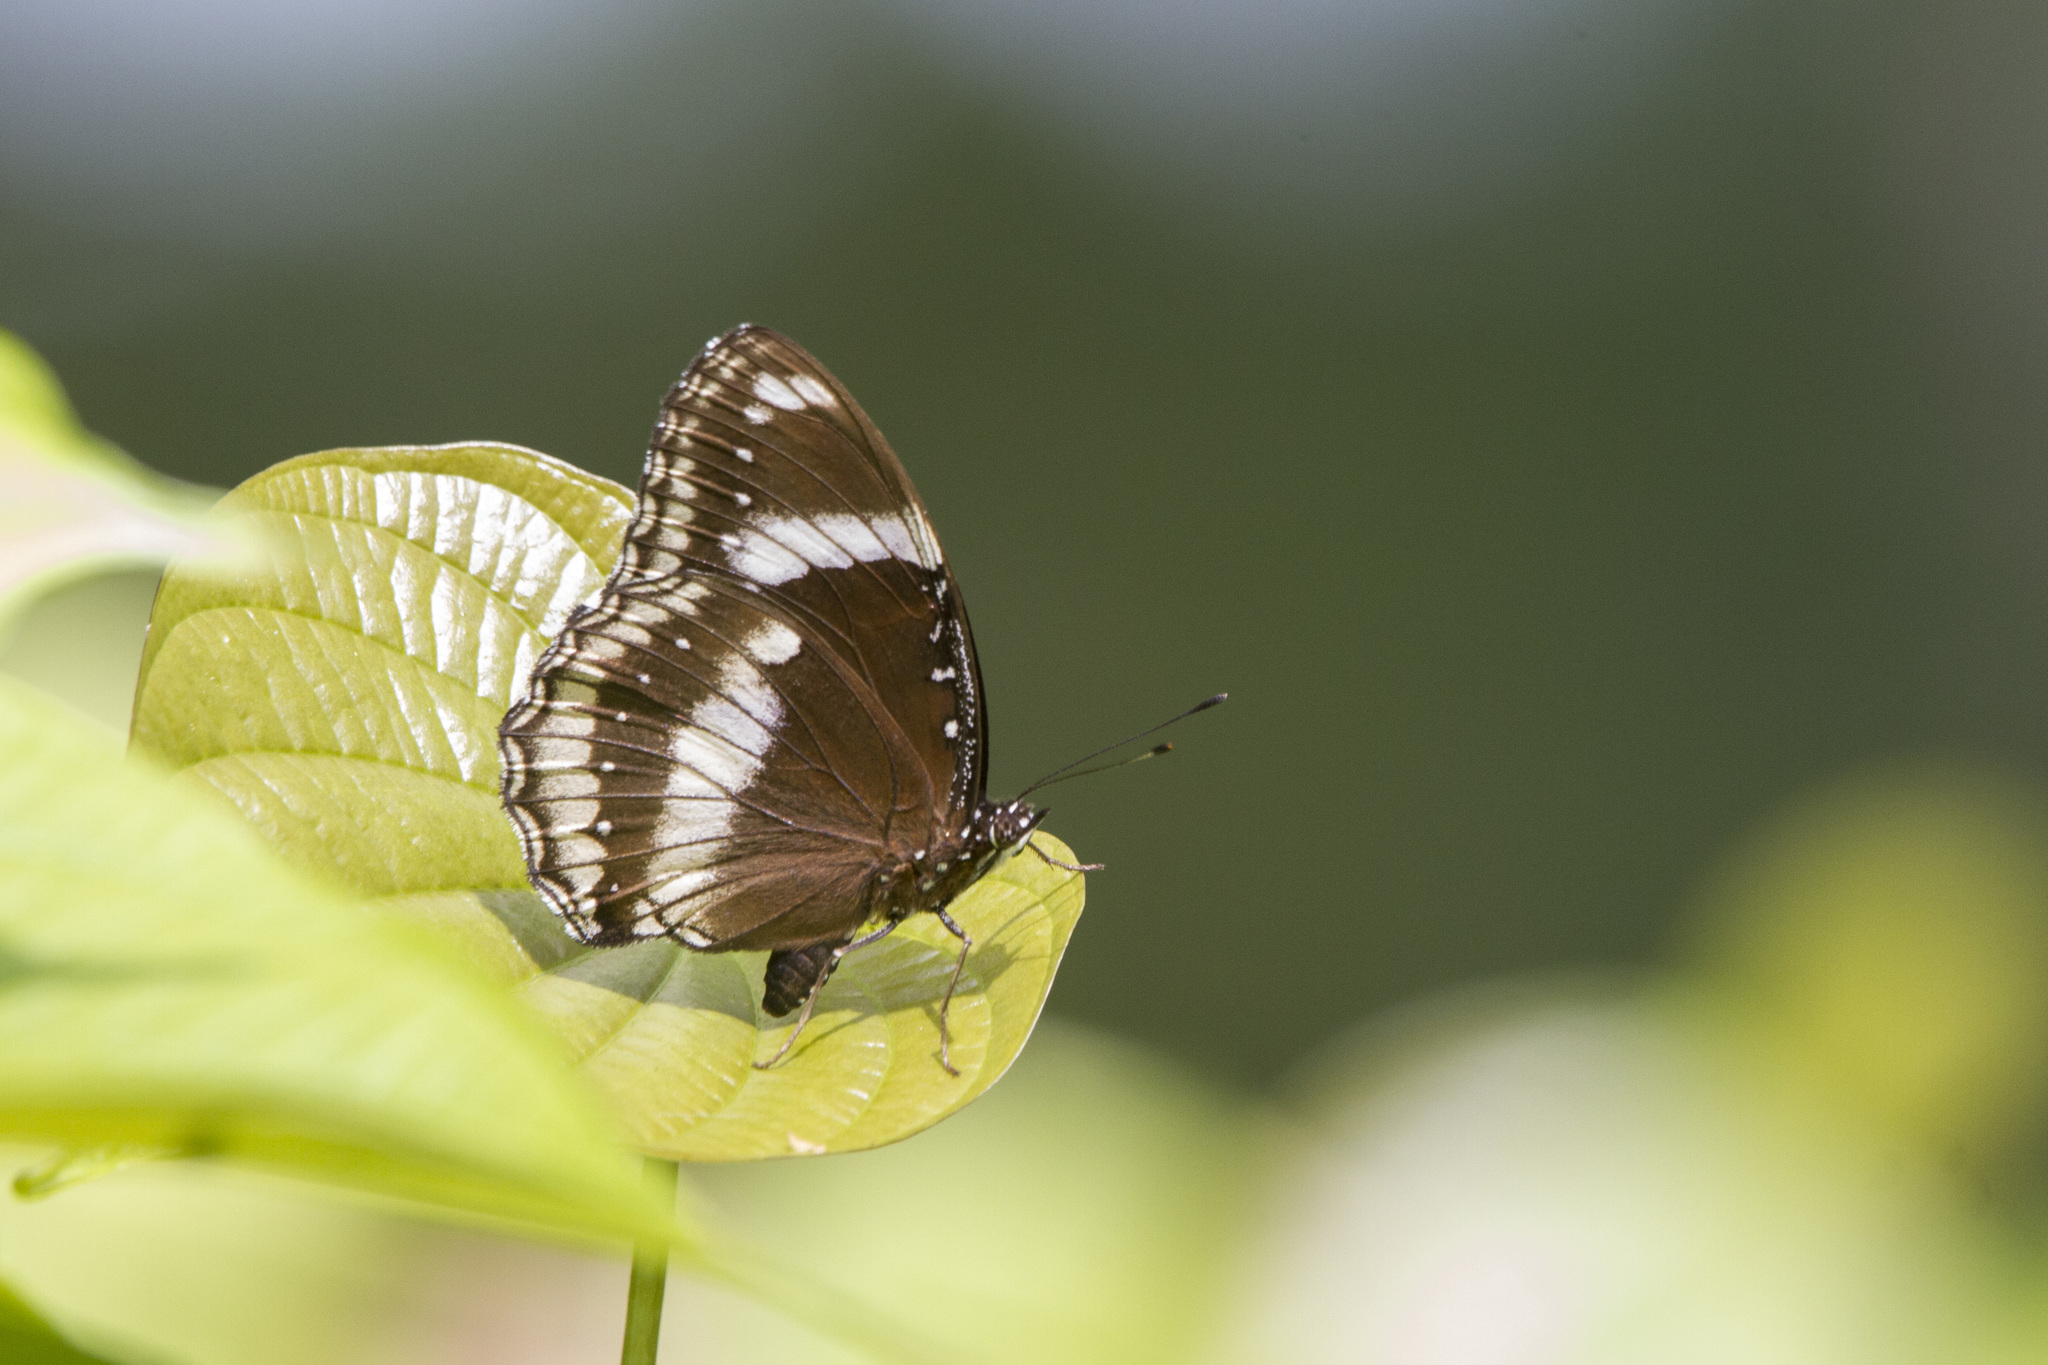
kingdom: Animalia
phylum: Arthropoda
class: Insecta
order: Lepidoptera
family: Nymphalidae
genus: Hypolimnas
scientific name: Hypolimnas bolina
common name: Great eggfly
